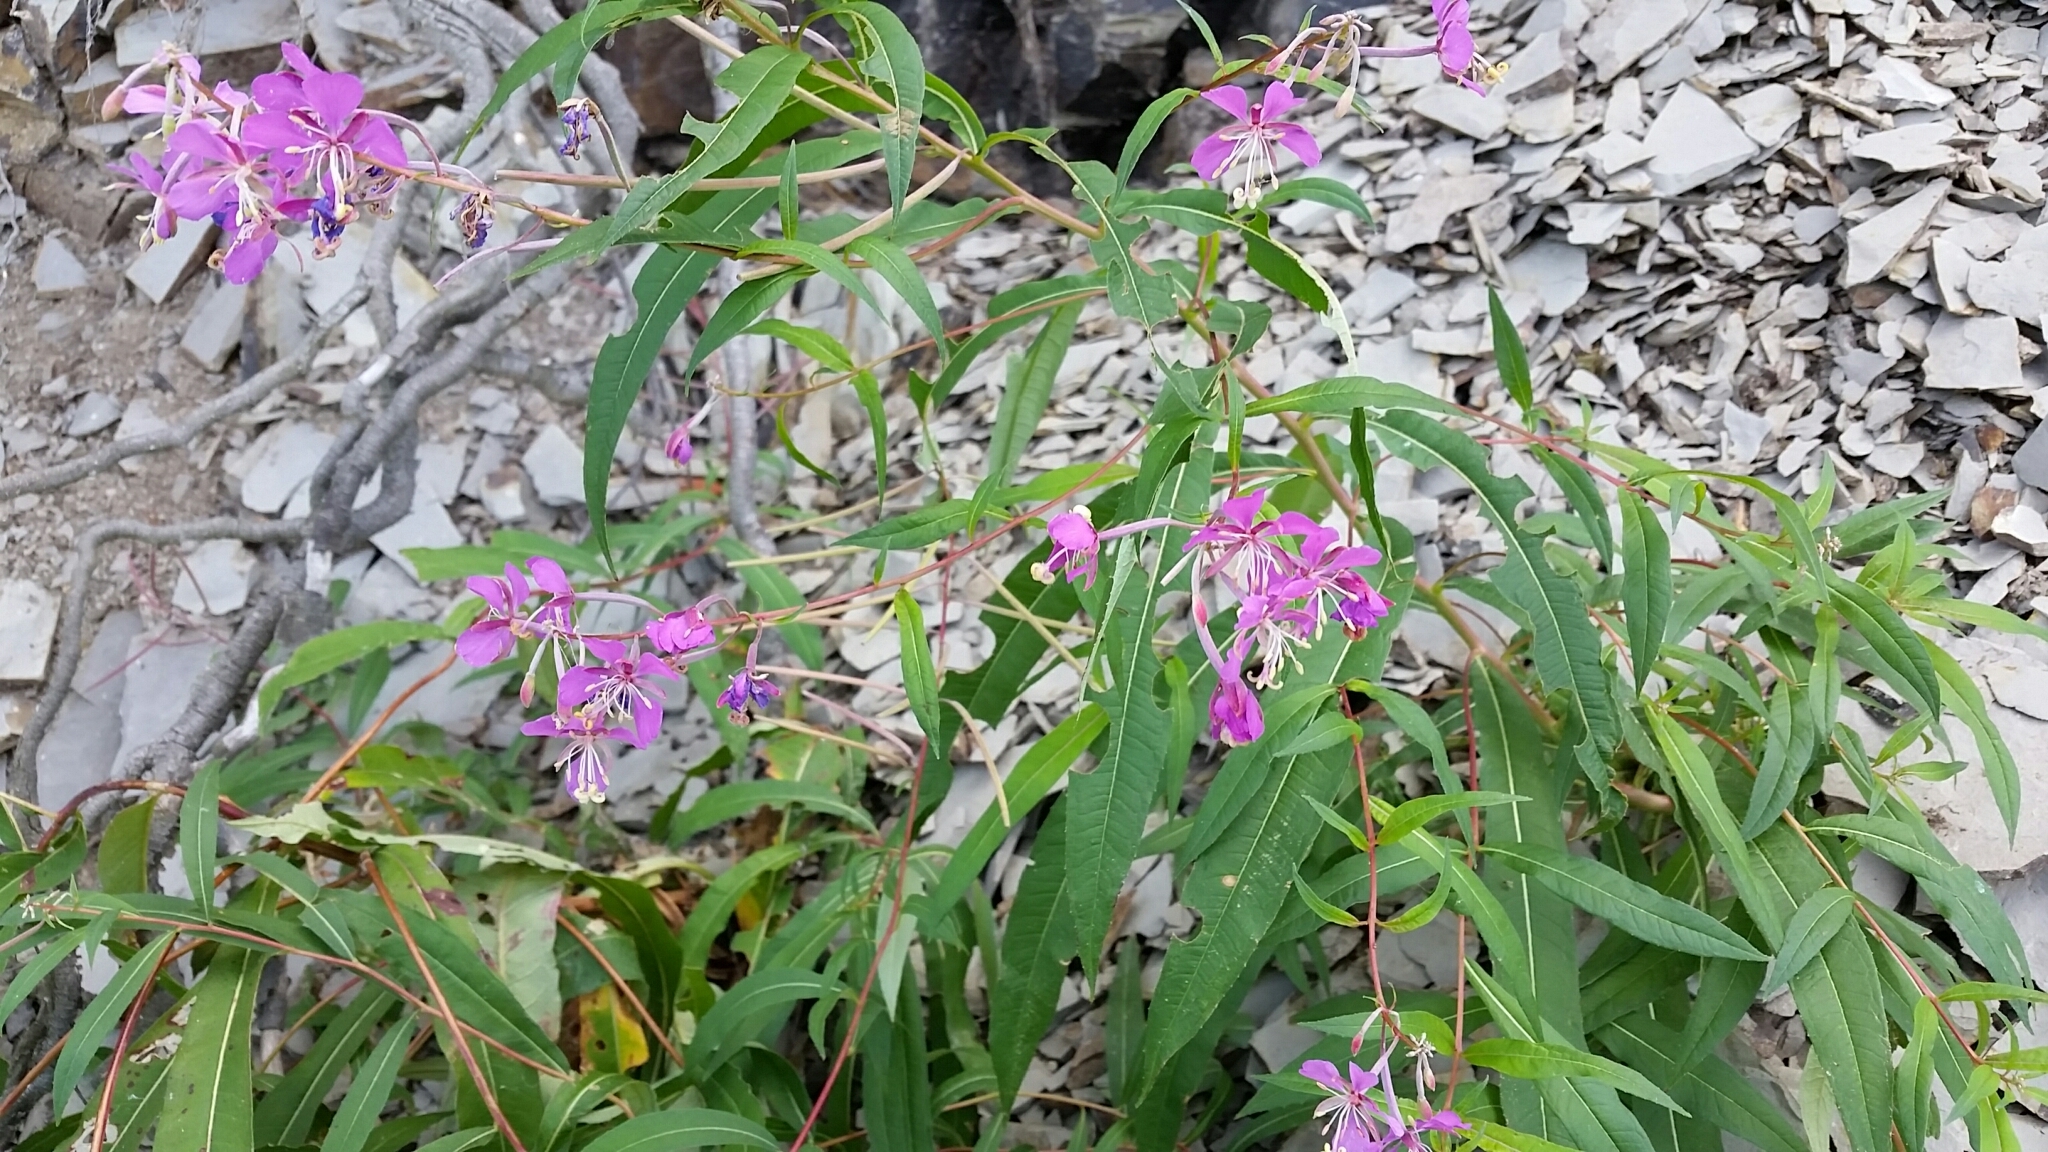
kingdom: Plantae
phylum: Tracheophyta
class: Magnoliopsida
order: Myrtales
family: Onagraceae
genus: Chamaenerion
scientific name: Chamaenerion angustifolium
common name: Fireweed
